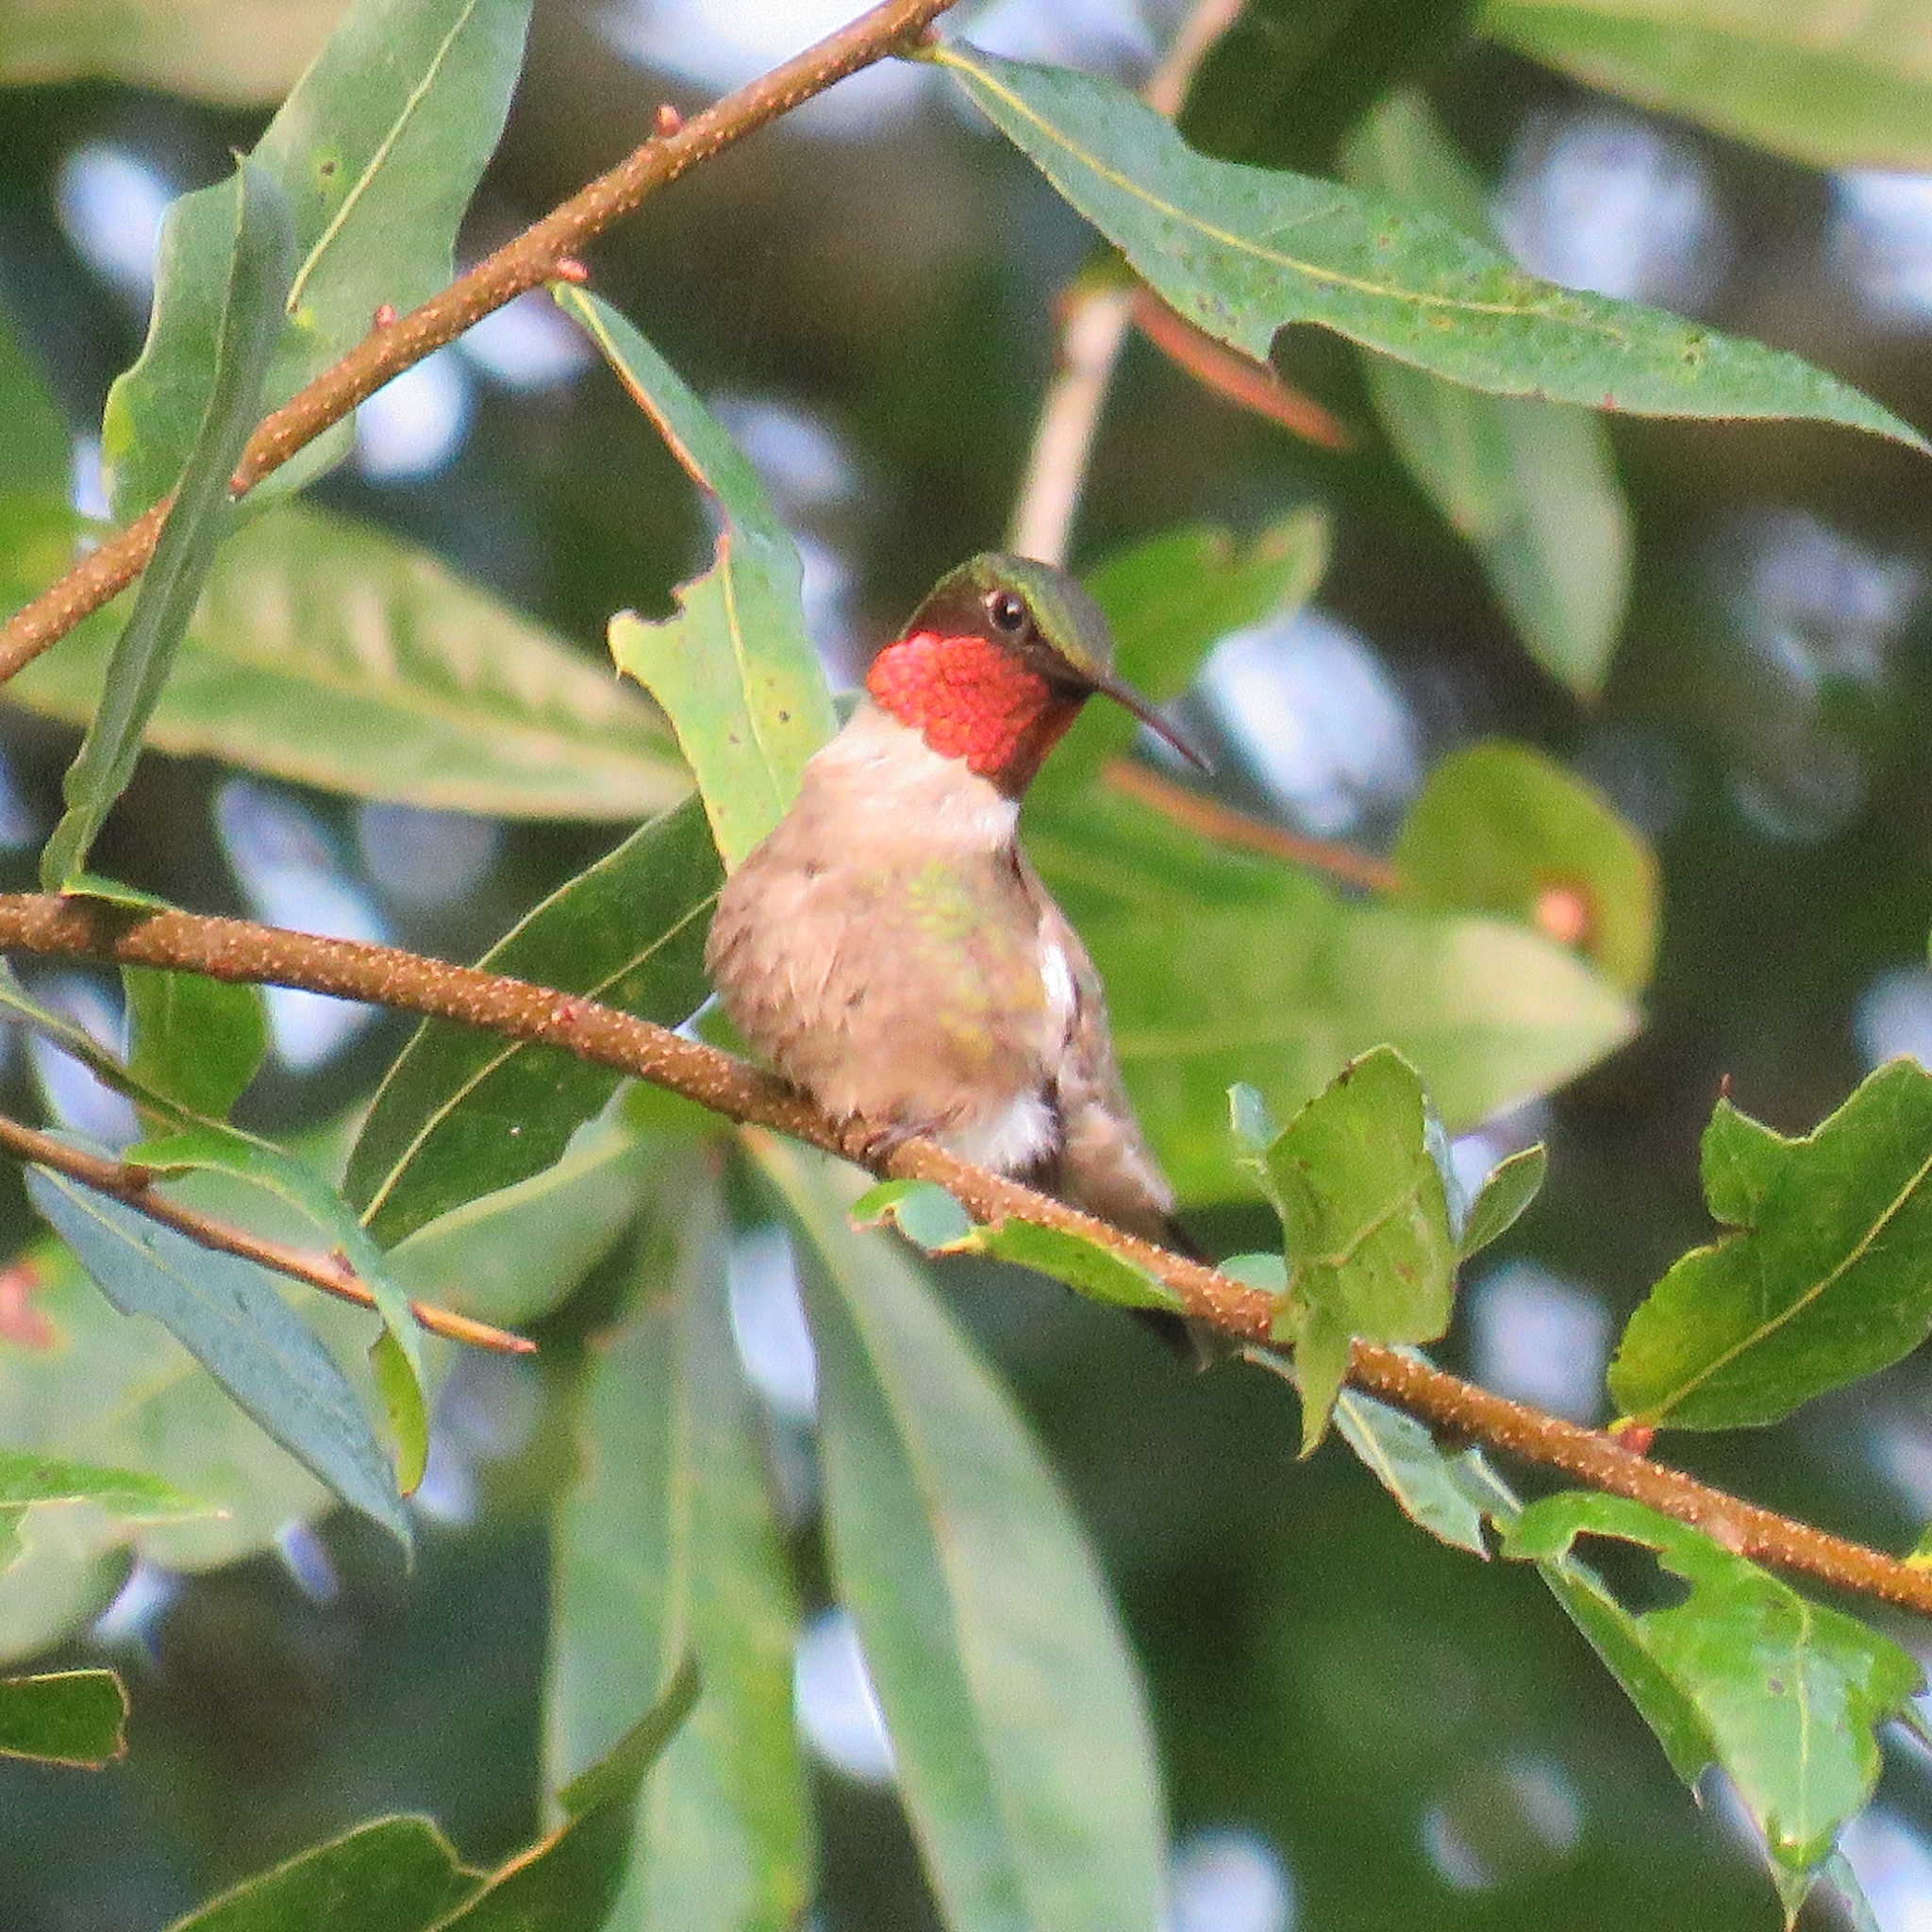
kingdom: Animalia
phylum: Chordata
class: Aves
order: Apodiformes
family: Trochilidae
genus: Archilochus
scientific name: Archilochus colubris
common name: Ruby-throated hummingbird
